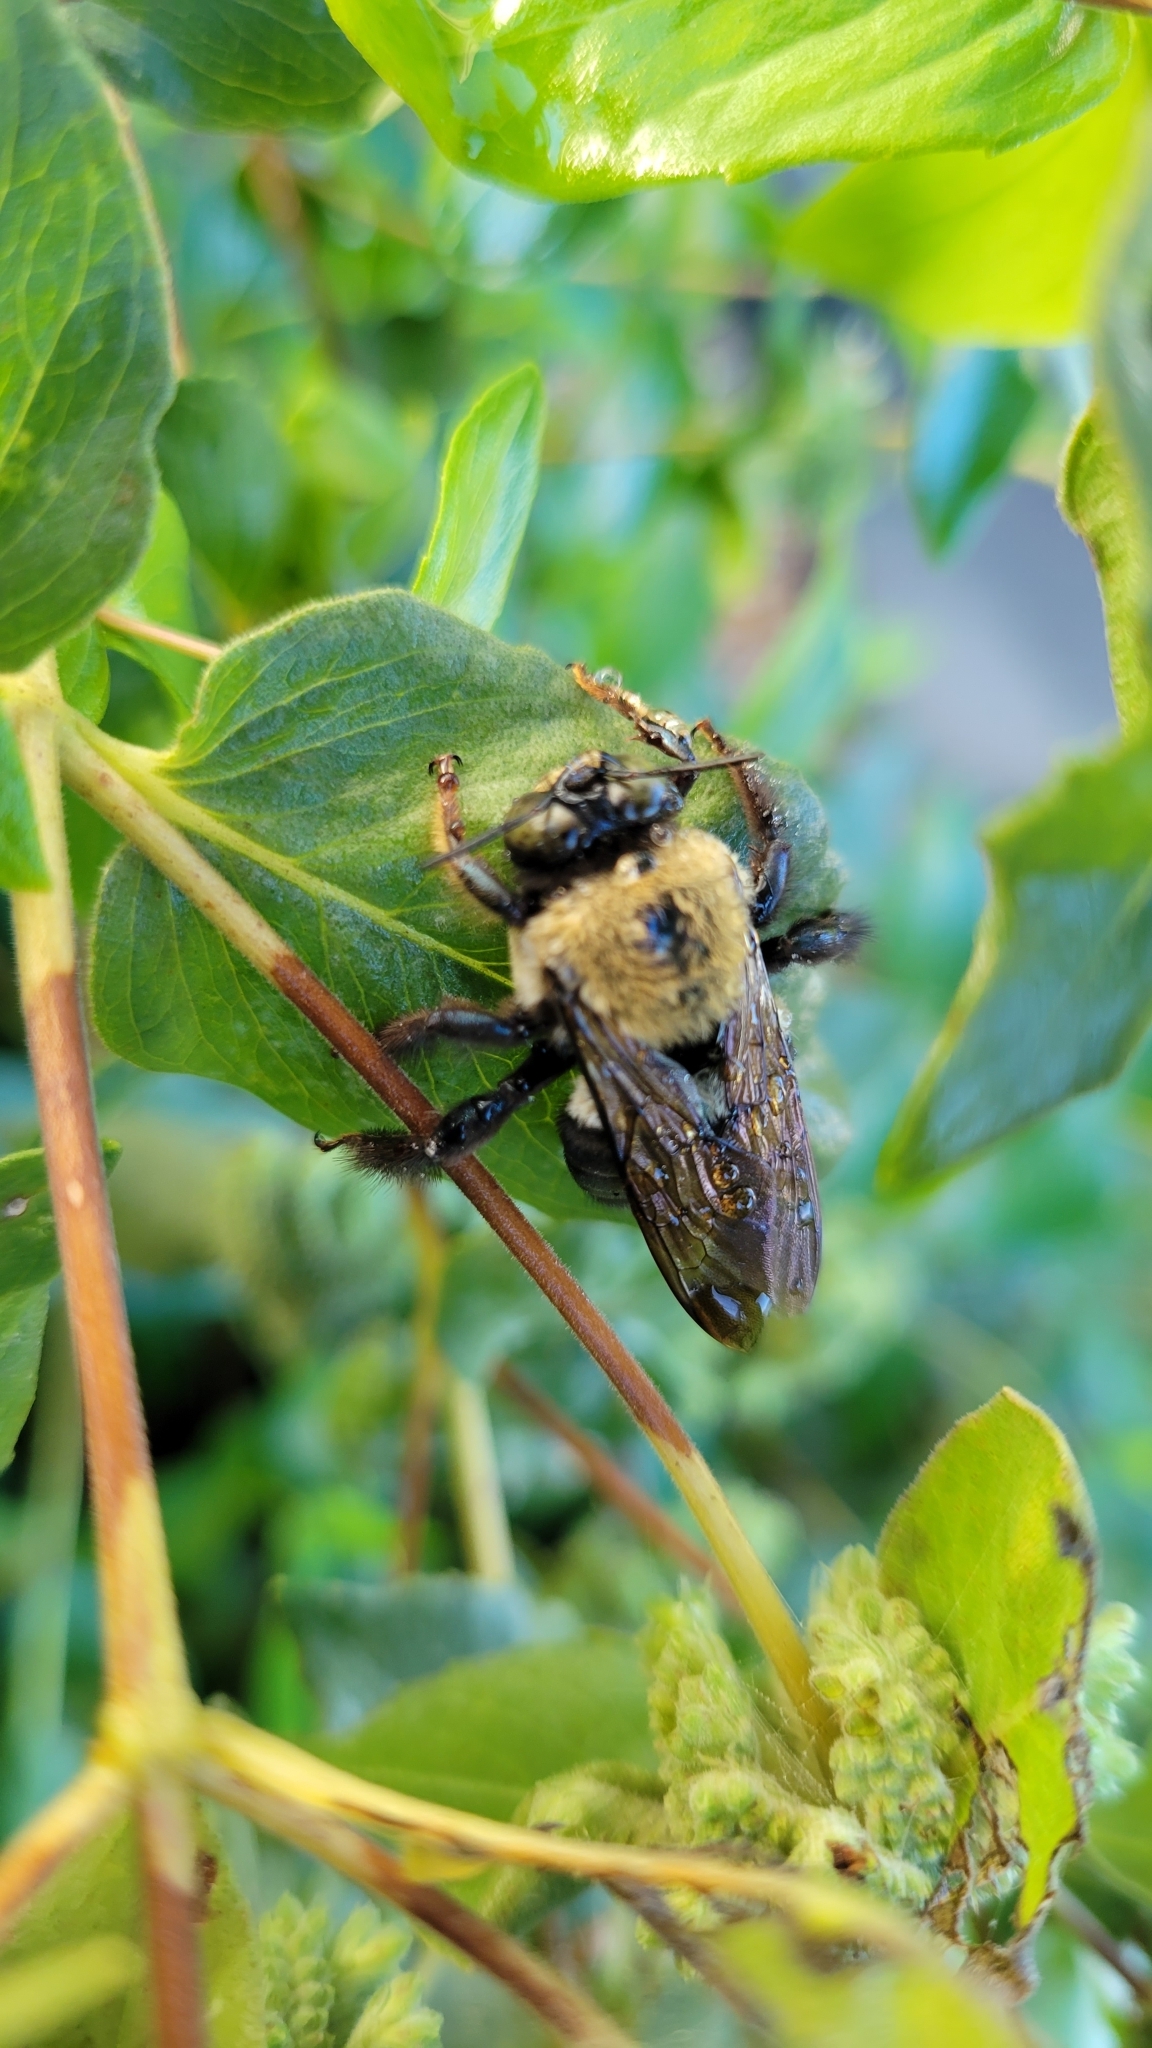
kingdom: Animalia
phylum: Arthropoda
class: Insecta
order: Hymenoptera
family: Apidae
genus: Xylocopa
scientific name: Xylocopa virginica
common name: Carpenter bee
